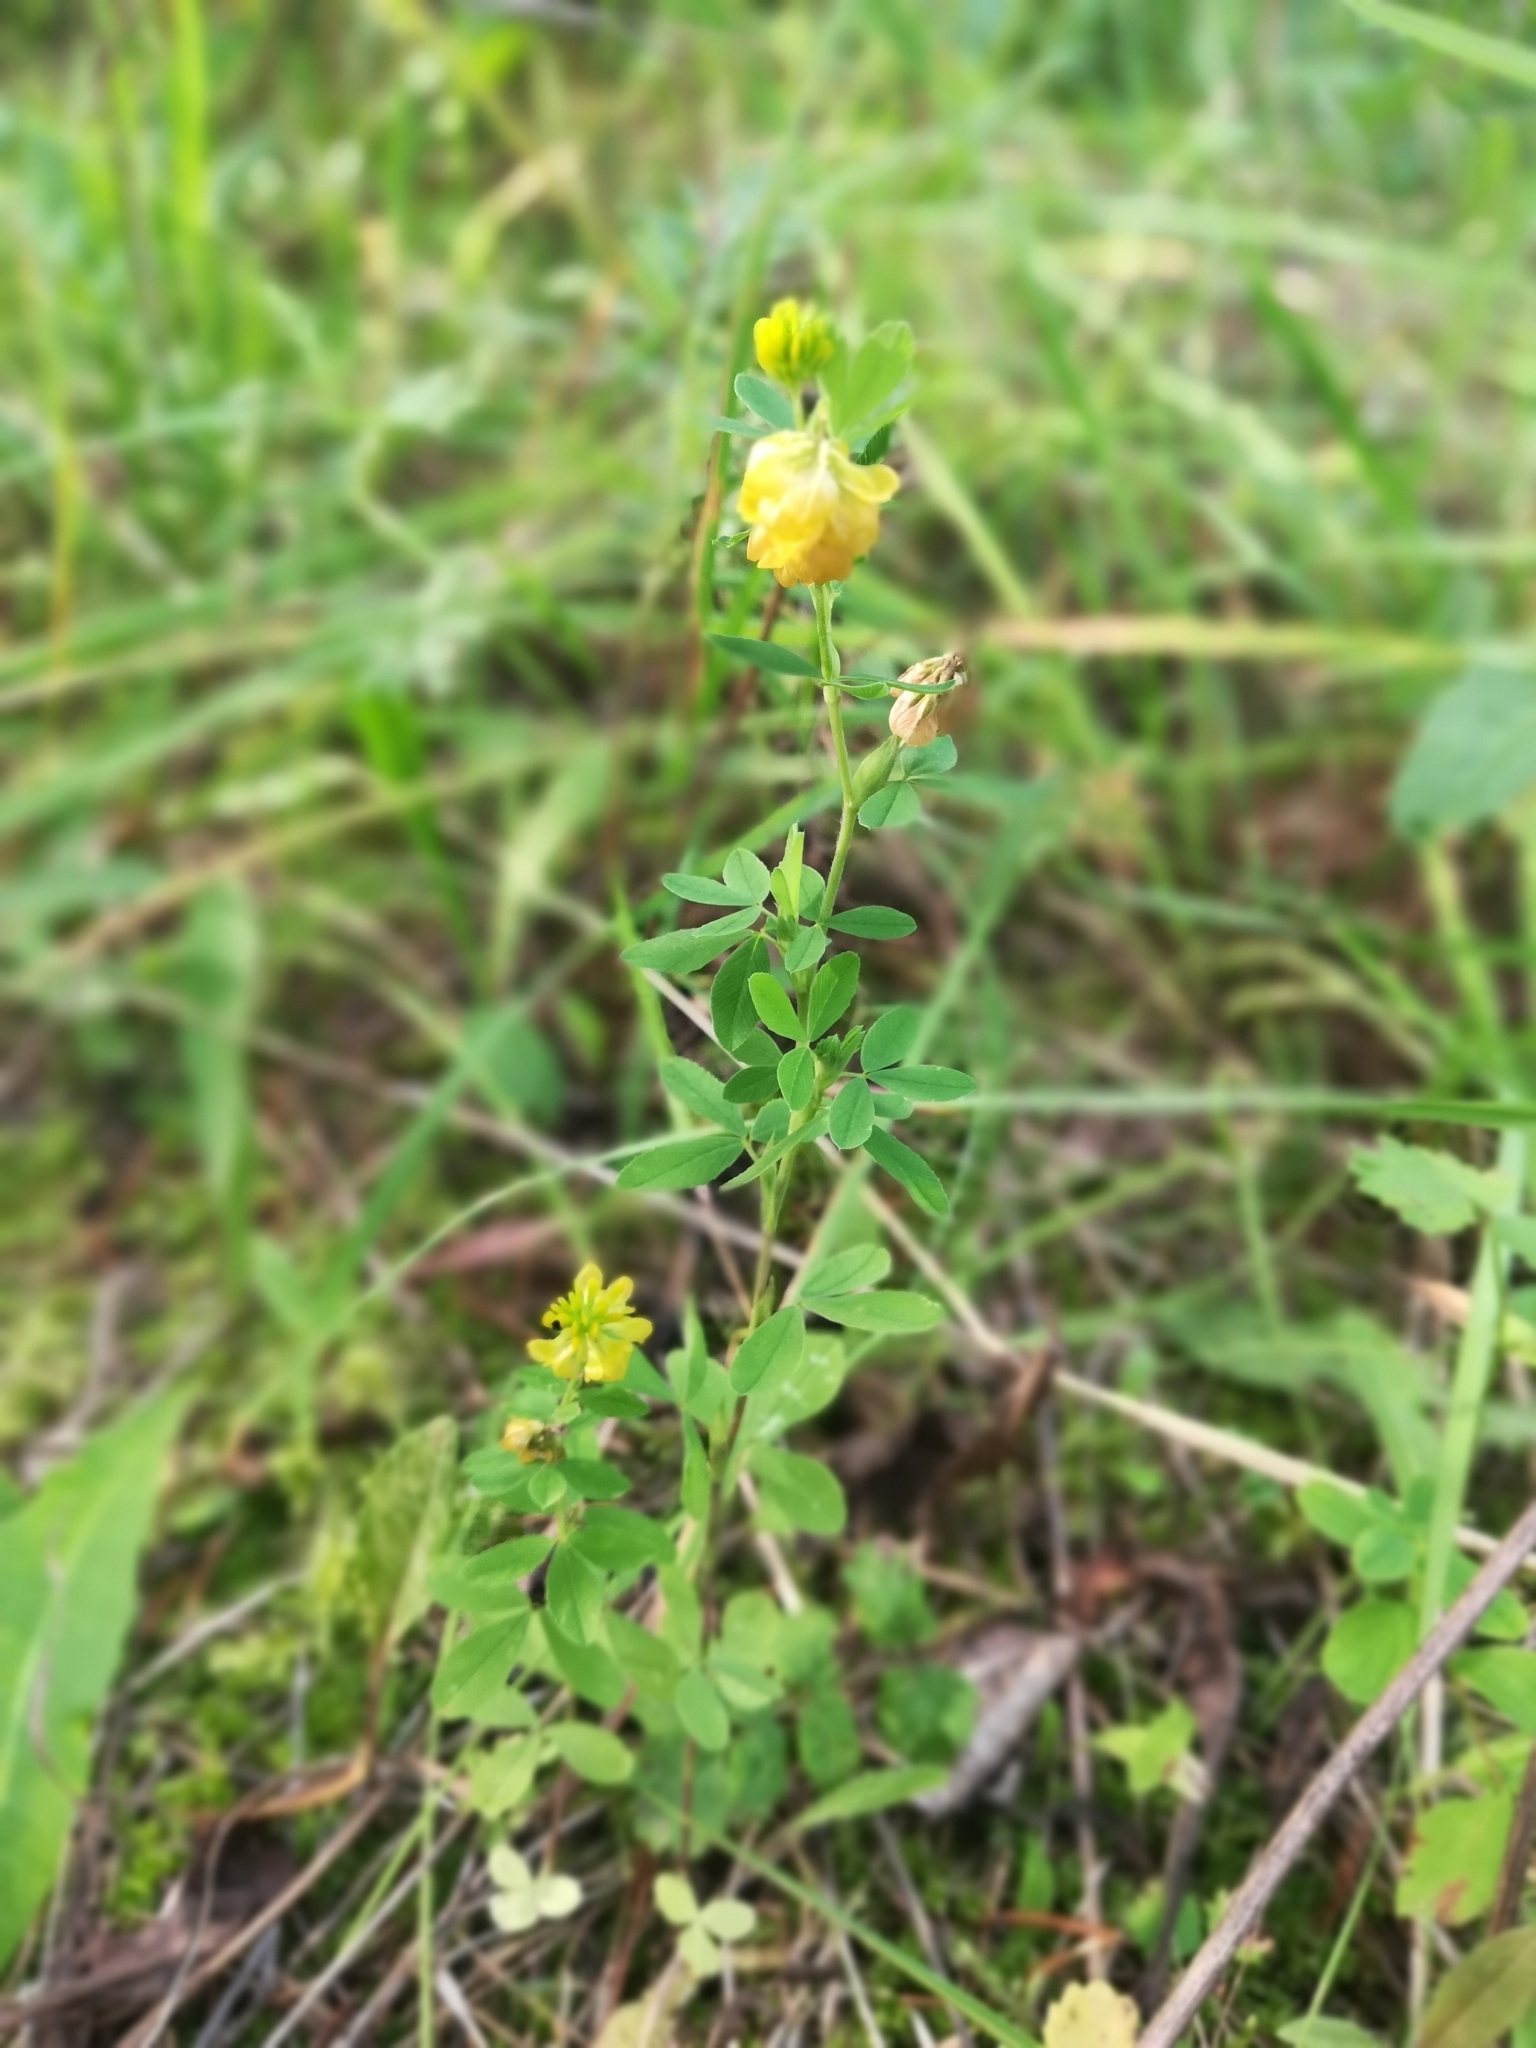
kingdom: Plantae
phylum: Tracheophyta
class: Magnoliopsida
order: Fabales
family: Fabaceae
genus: Trifolium
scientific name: Trifolium aureum
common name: Golden clover
